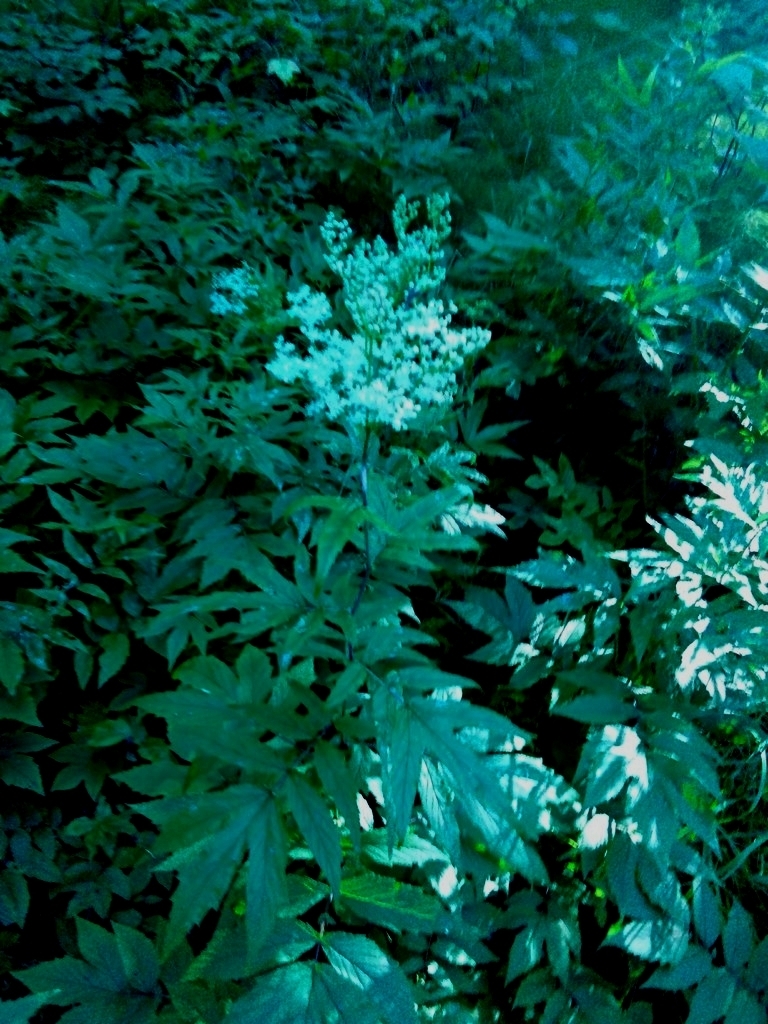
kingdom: Plantae
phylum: Tracheophyta
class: Magnoliopsida
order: Rosales
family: Rosaceae
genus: Filipendula
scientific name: Filipendula ulmaria
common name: Meadowsweet
